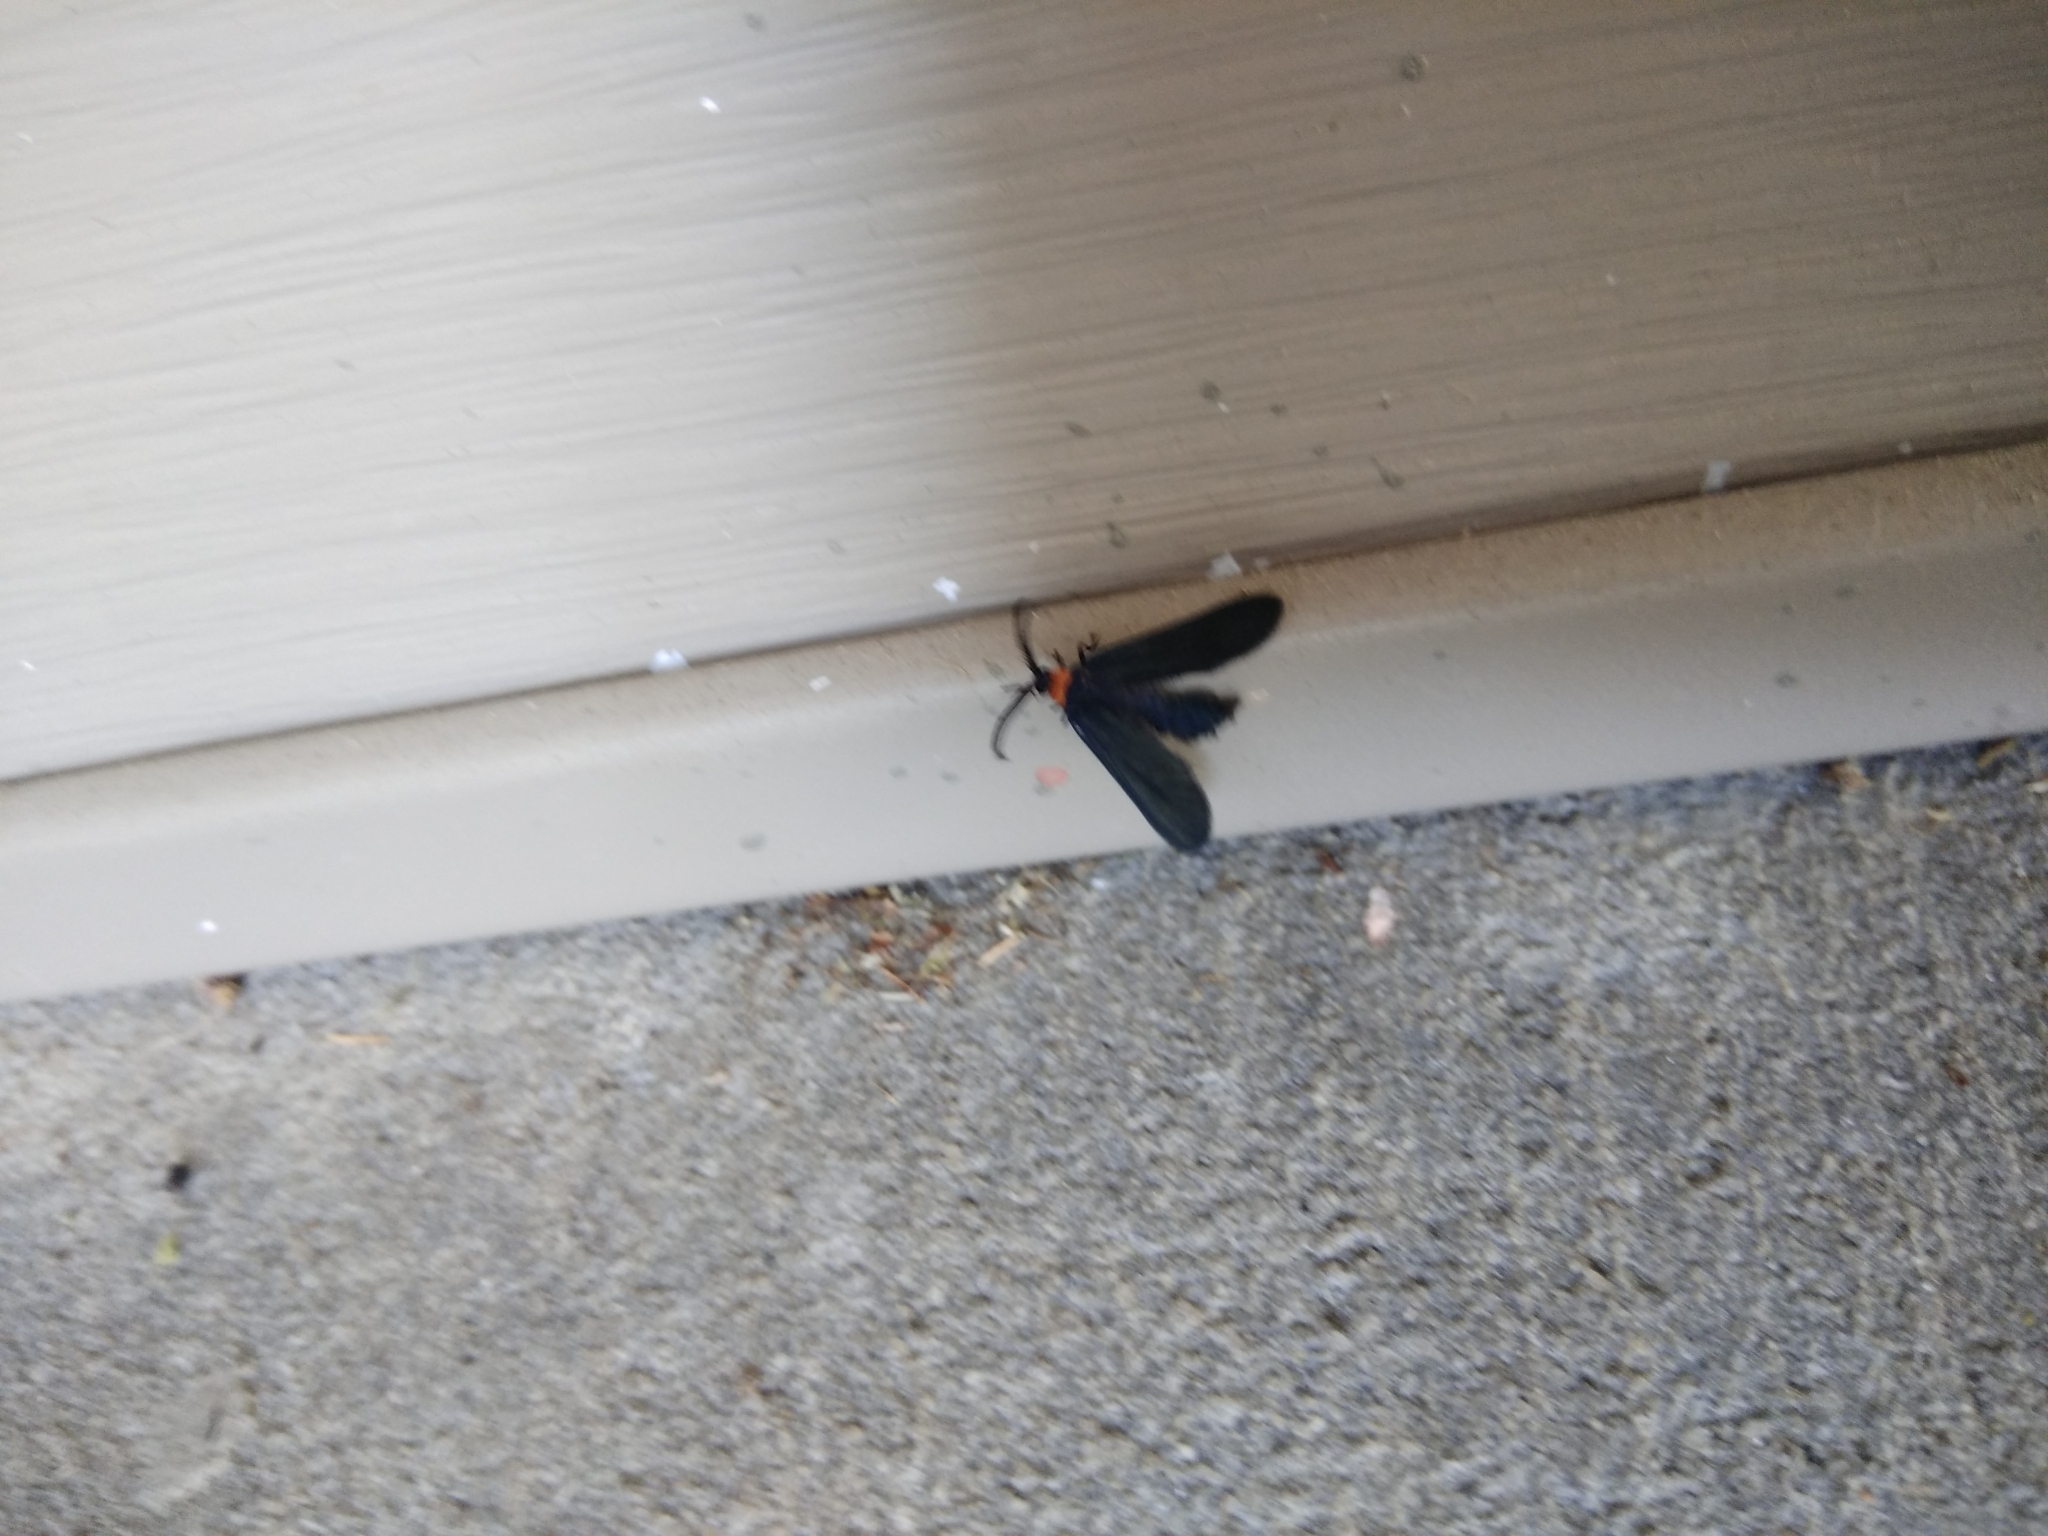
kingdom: Animalia
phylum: Arthropoda
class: Insecta
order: Lepidoptera
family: Zygaenidae
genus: Harrisina
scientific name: Harrisina americana
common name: Grapeleaf skeletonizer moth
